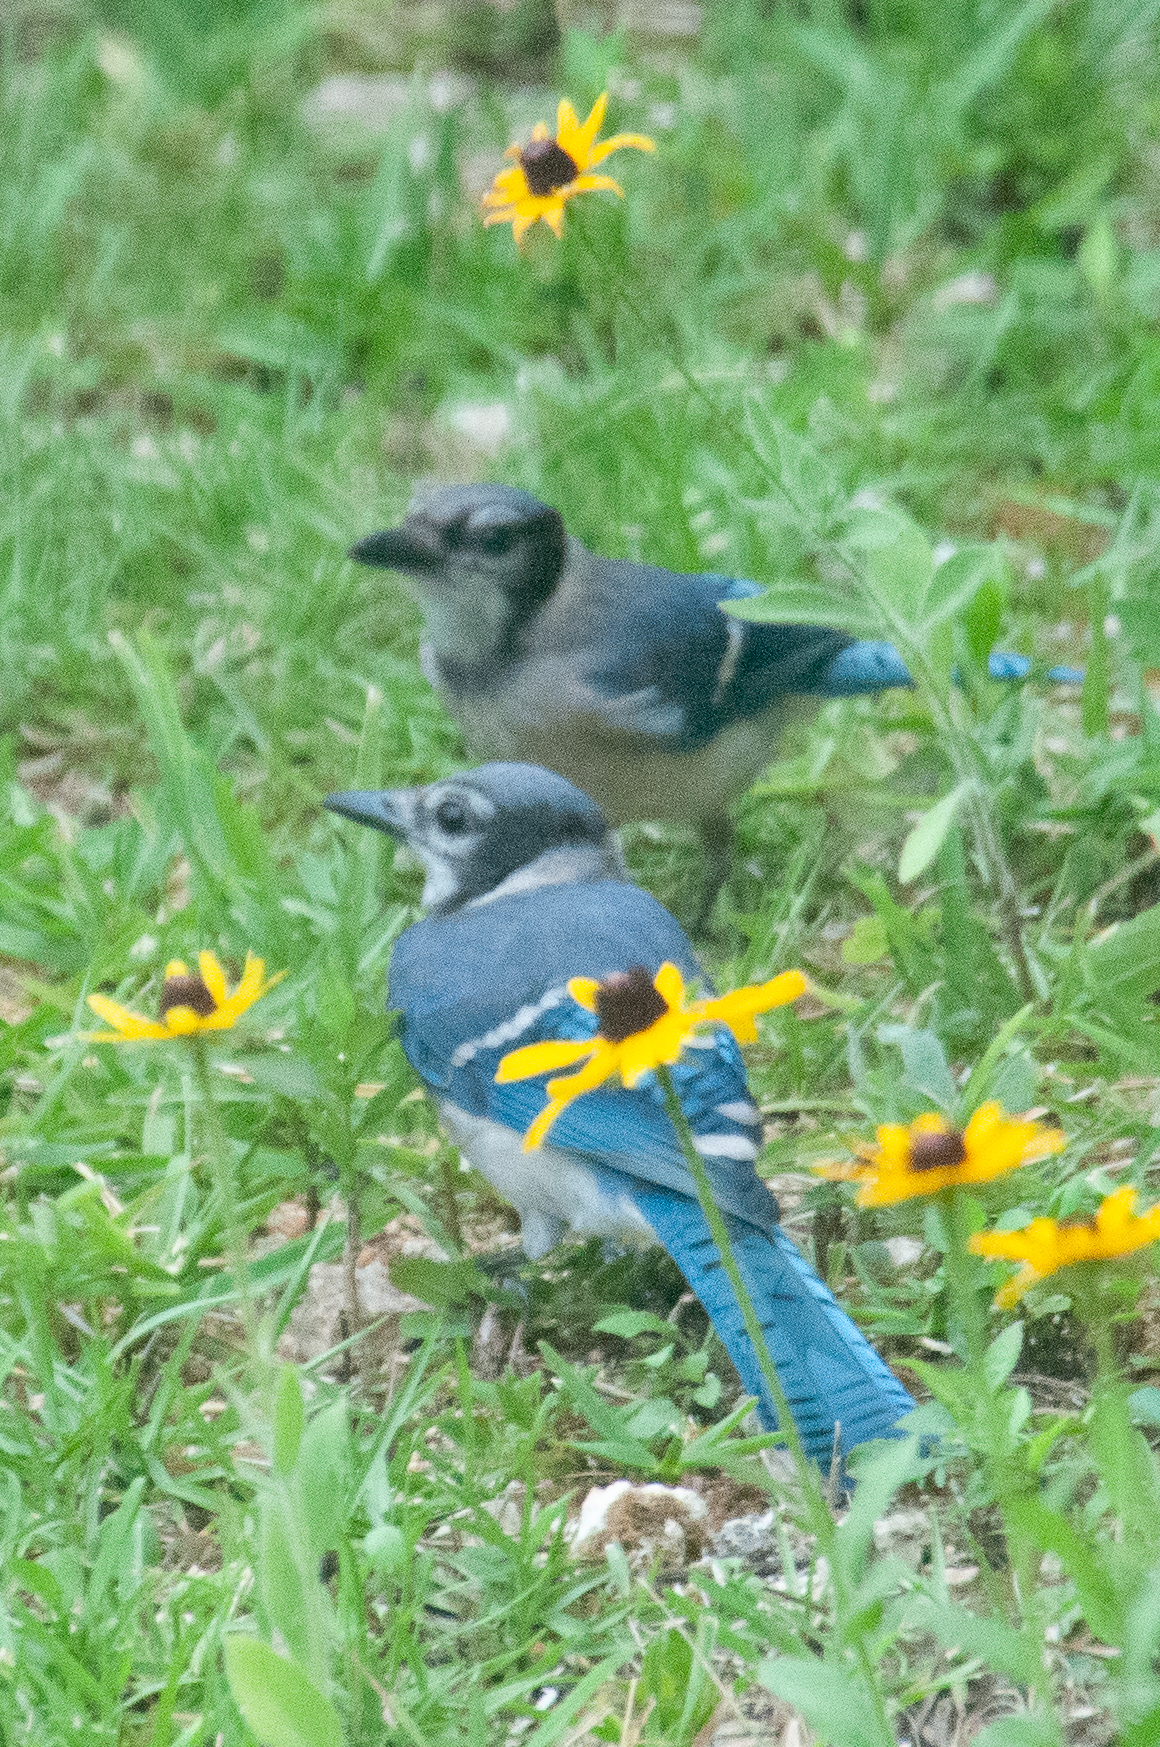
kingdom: Animalia
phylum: Chordata
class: Aves
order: Passeriformes
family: Corvidae
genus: Cyanocitta
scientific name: Cyanocitta cristata
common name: Blue jay
